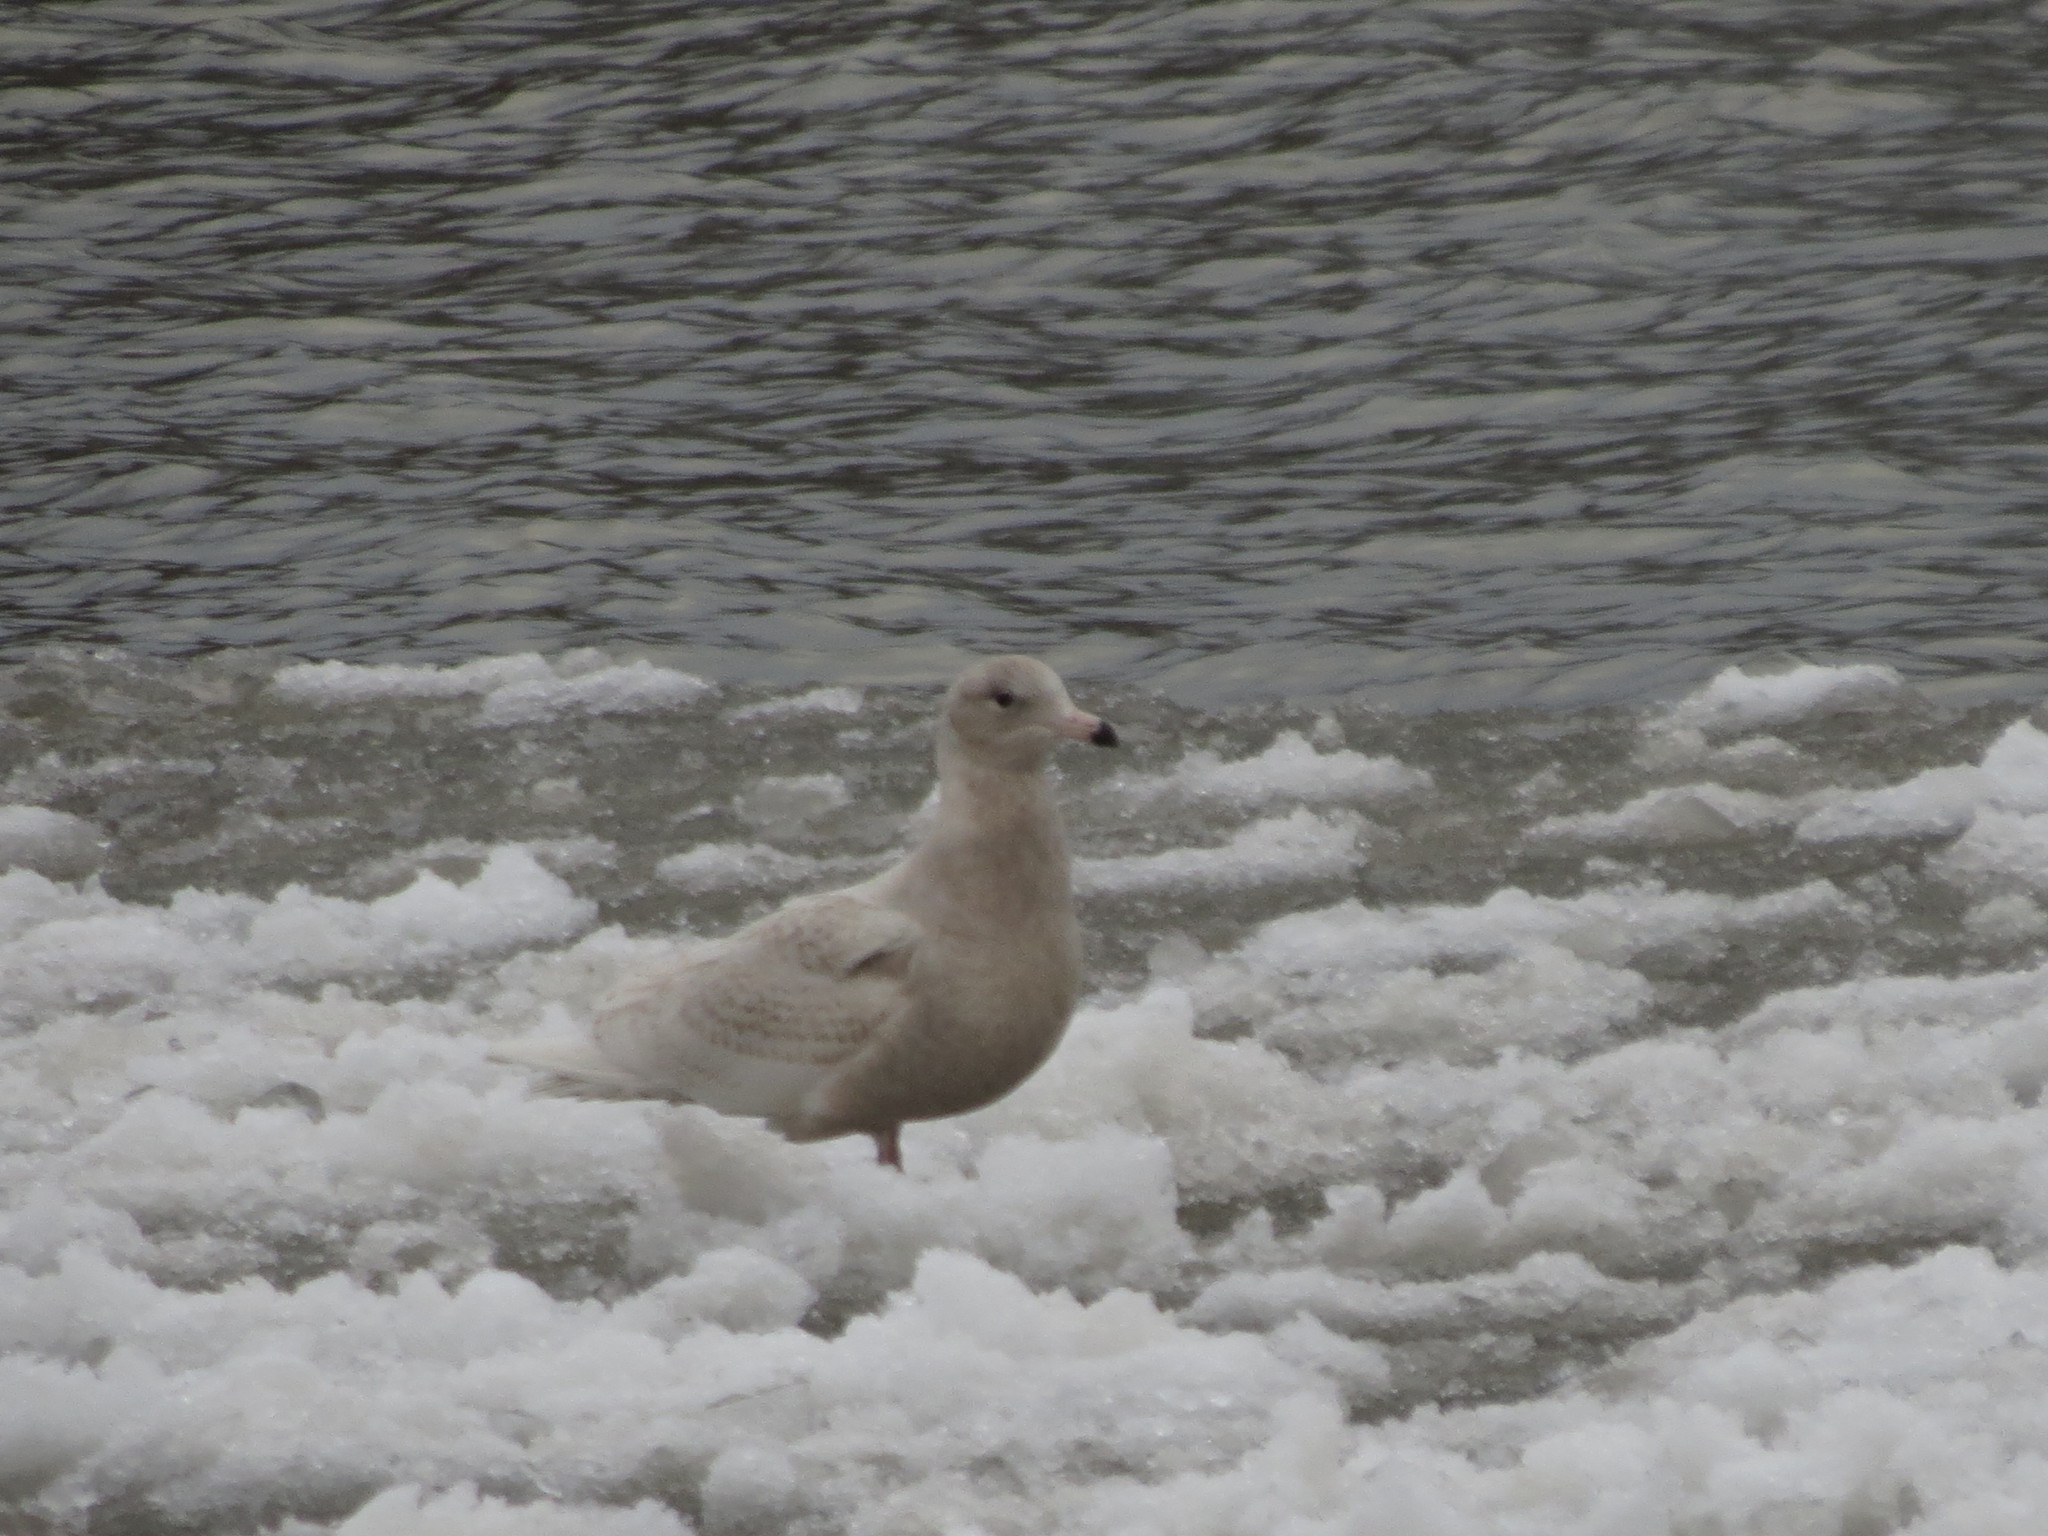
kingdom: Animalia
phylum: Chordata
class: Aves
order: Charadriiformes
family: Laridae
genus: Larus
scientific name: Larus hyperboreus
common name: Glaucous gull
